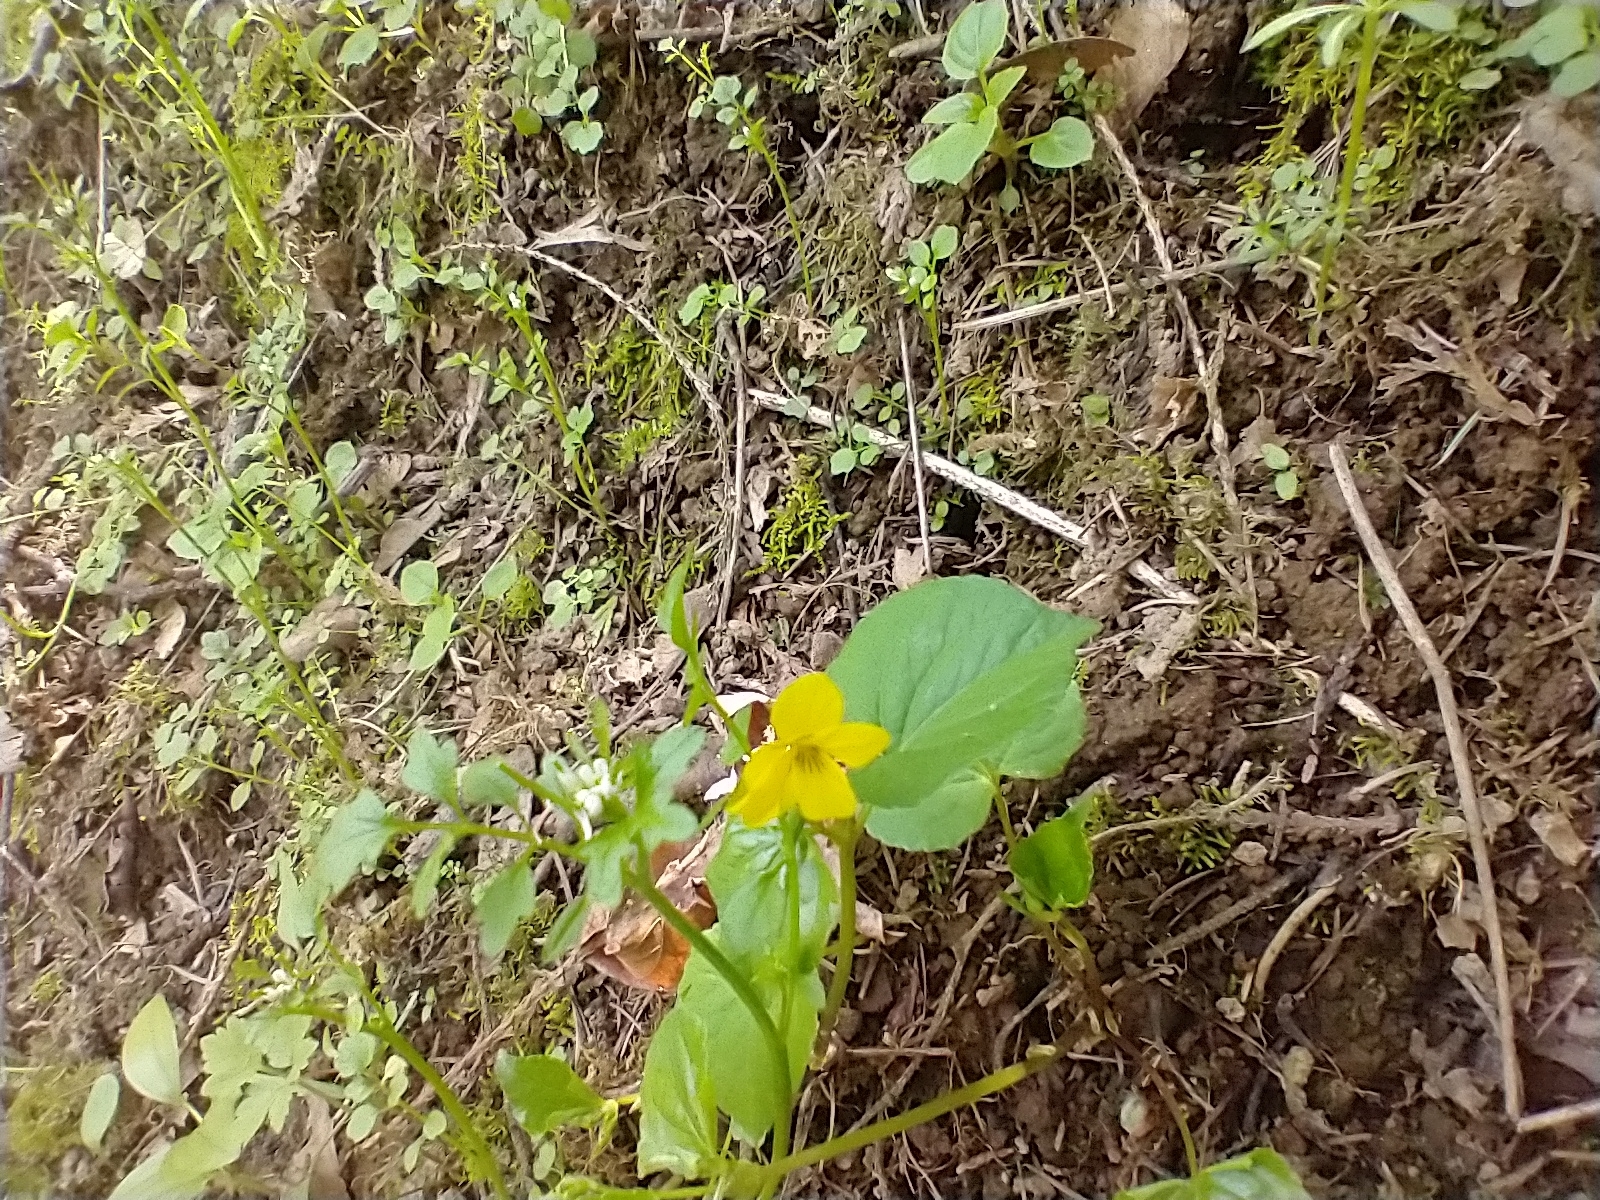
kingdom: Plantae
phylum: Tracheophyta
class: Magnoliopsida
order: Malpighiales
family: Violaceae
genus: Viola
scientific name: Viola glabella
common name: Stream violet
